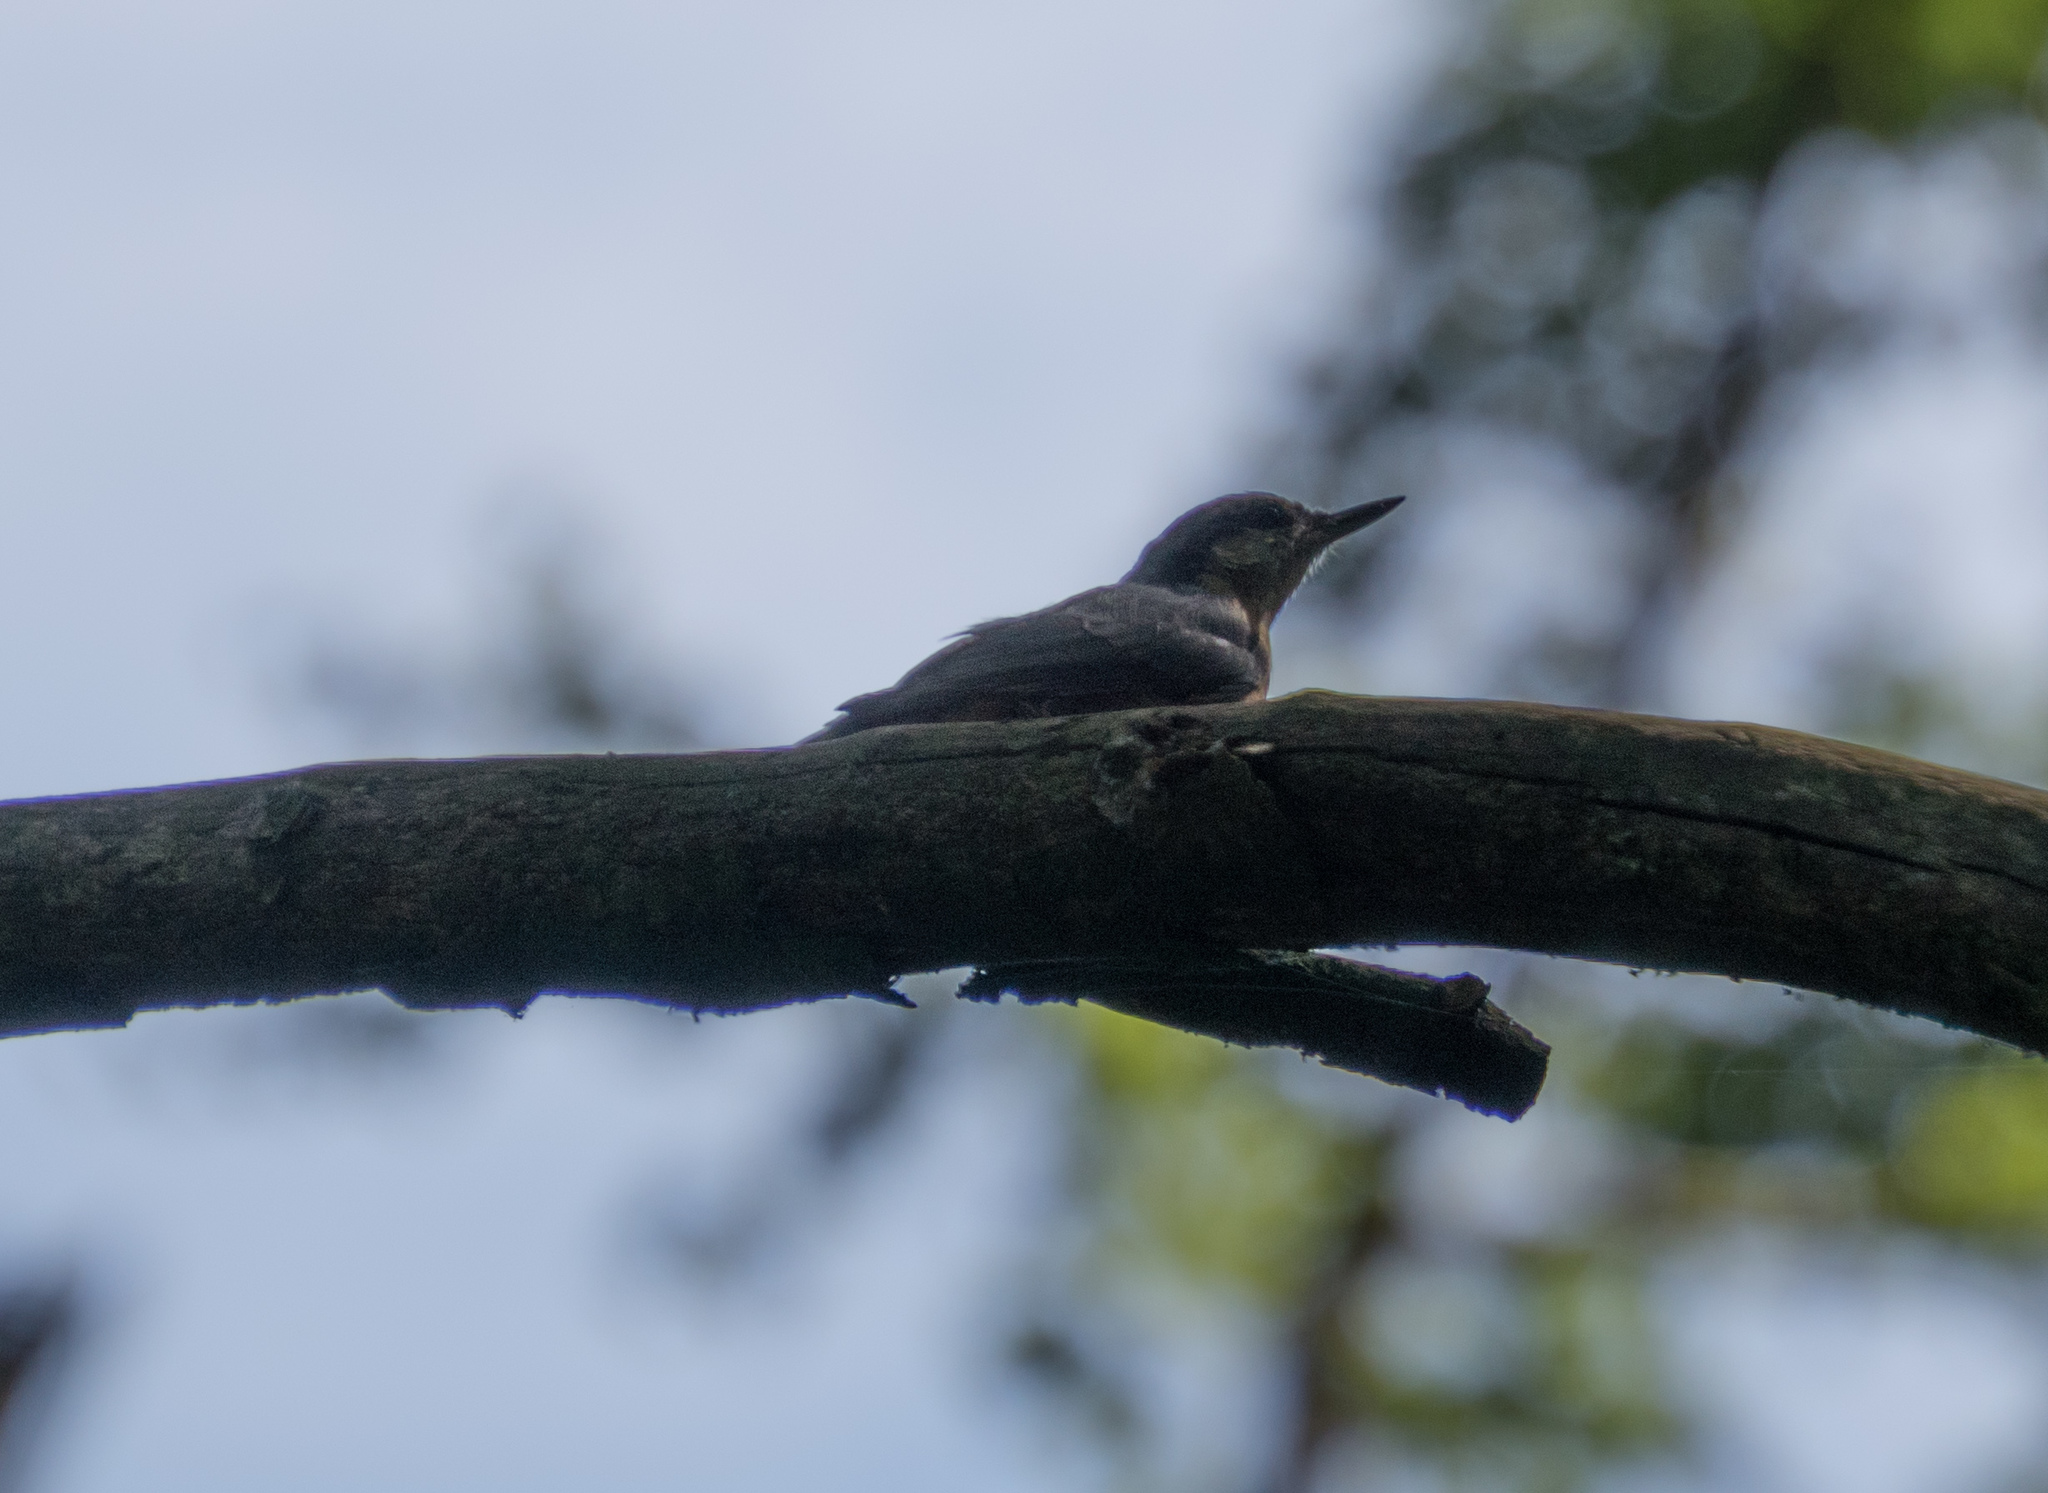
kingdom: Animalia
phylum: Chordata
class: Aves
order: Passeriformes
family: Sittidae
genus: Sitta
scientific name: Sitta europaea
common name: Eurasian nuthatch
